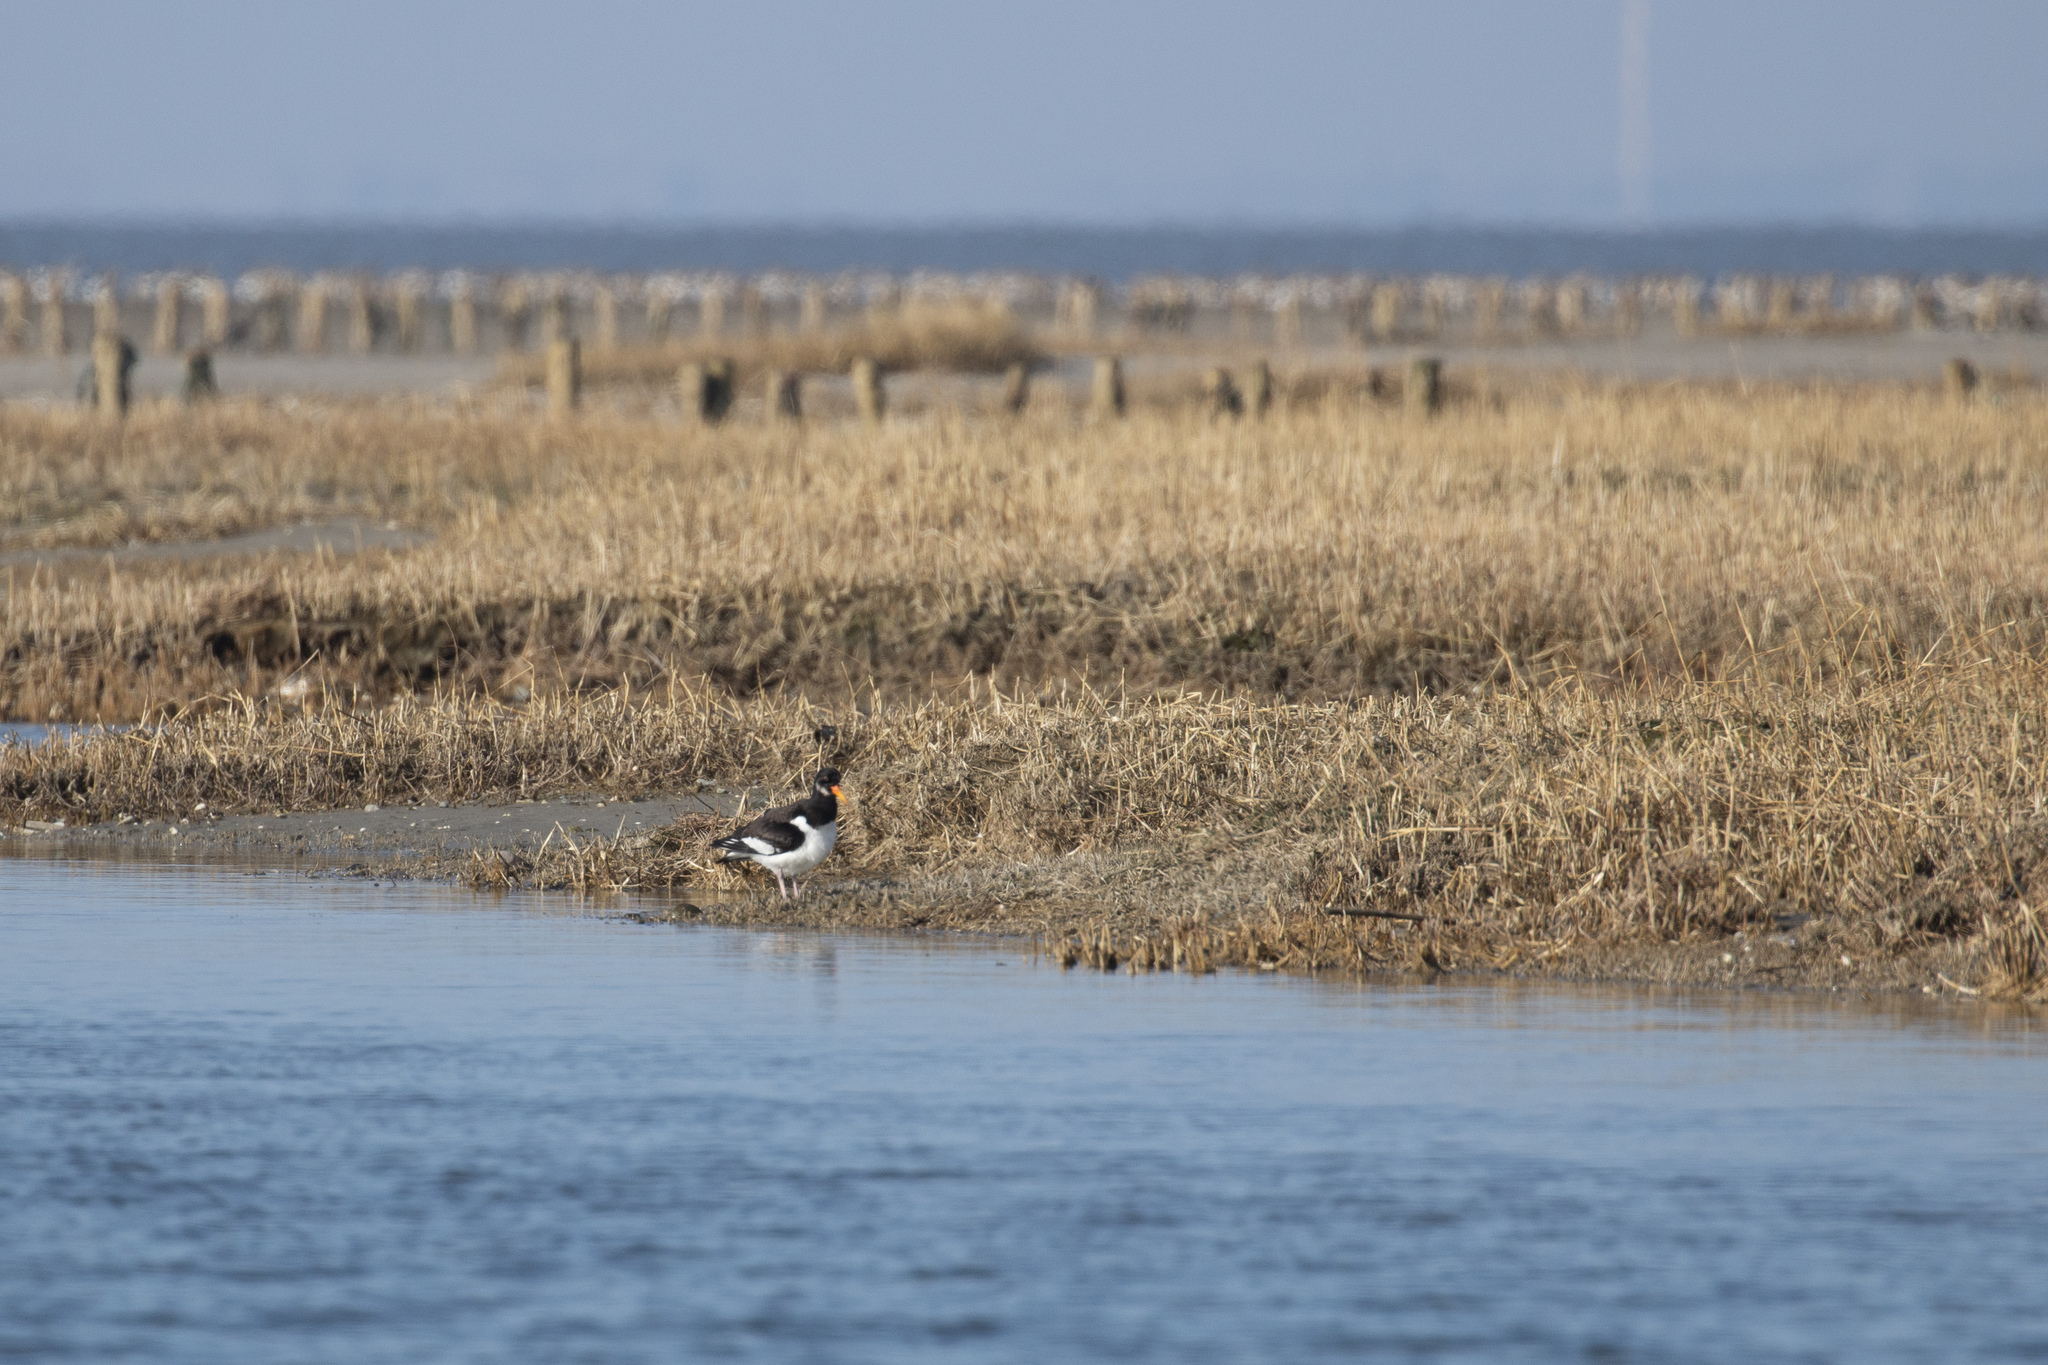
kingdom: Animalia
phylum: Chordata
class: Aves
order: Charadriiformes
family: Haematopodidae
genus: Haematopus
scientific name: Haematopus ostralegus
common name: Eurasian oystercatcher
